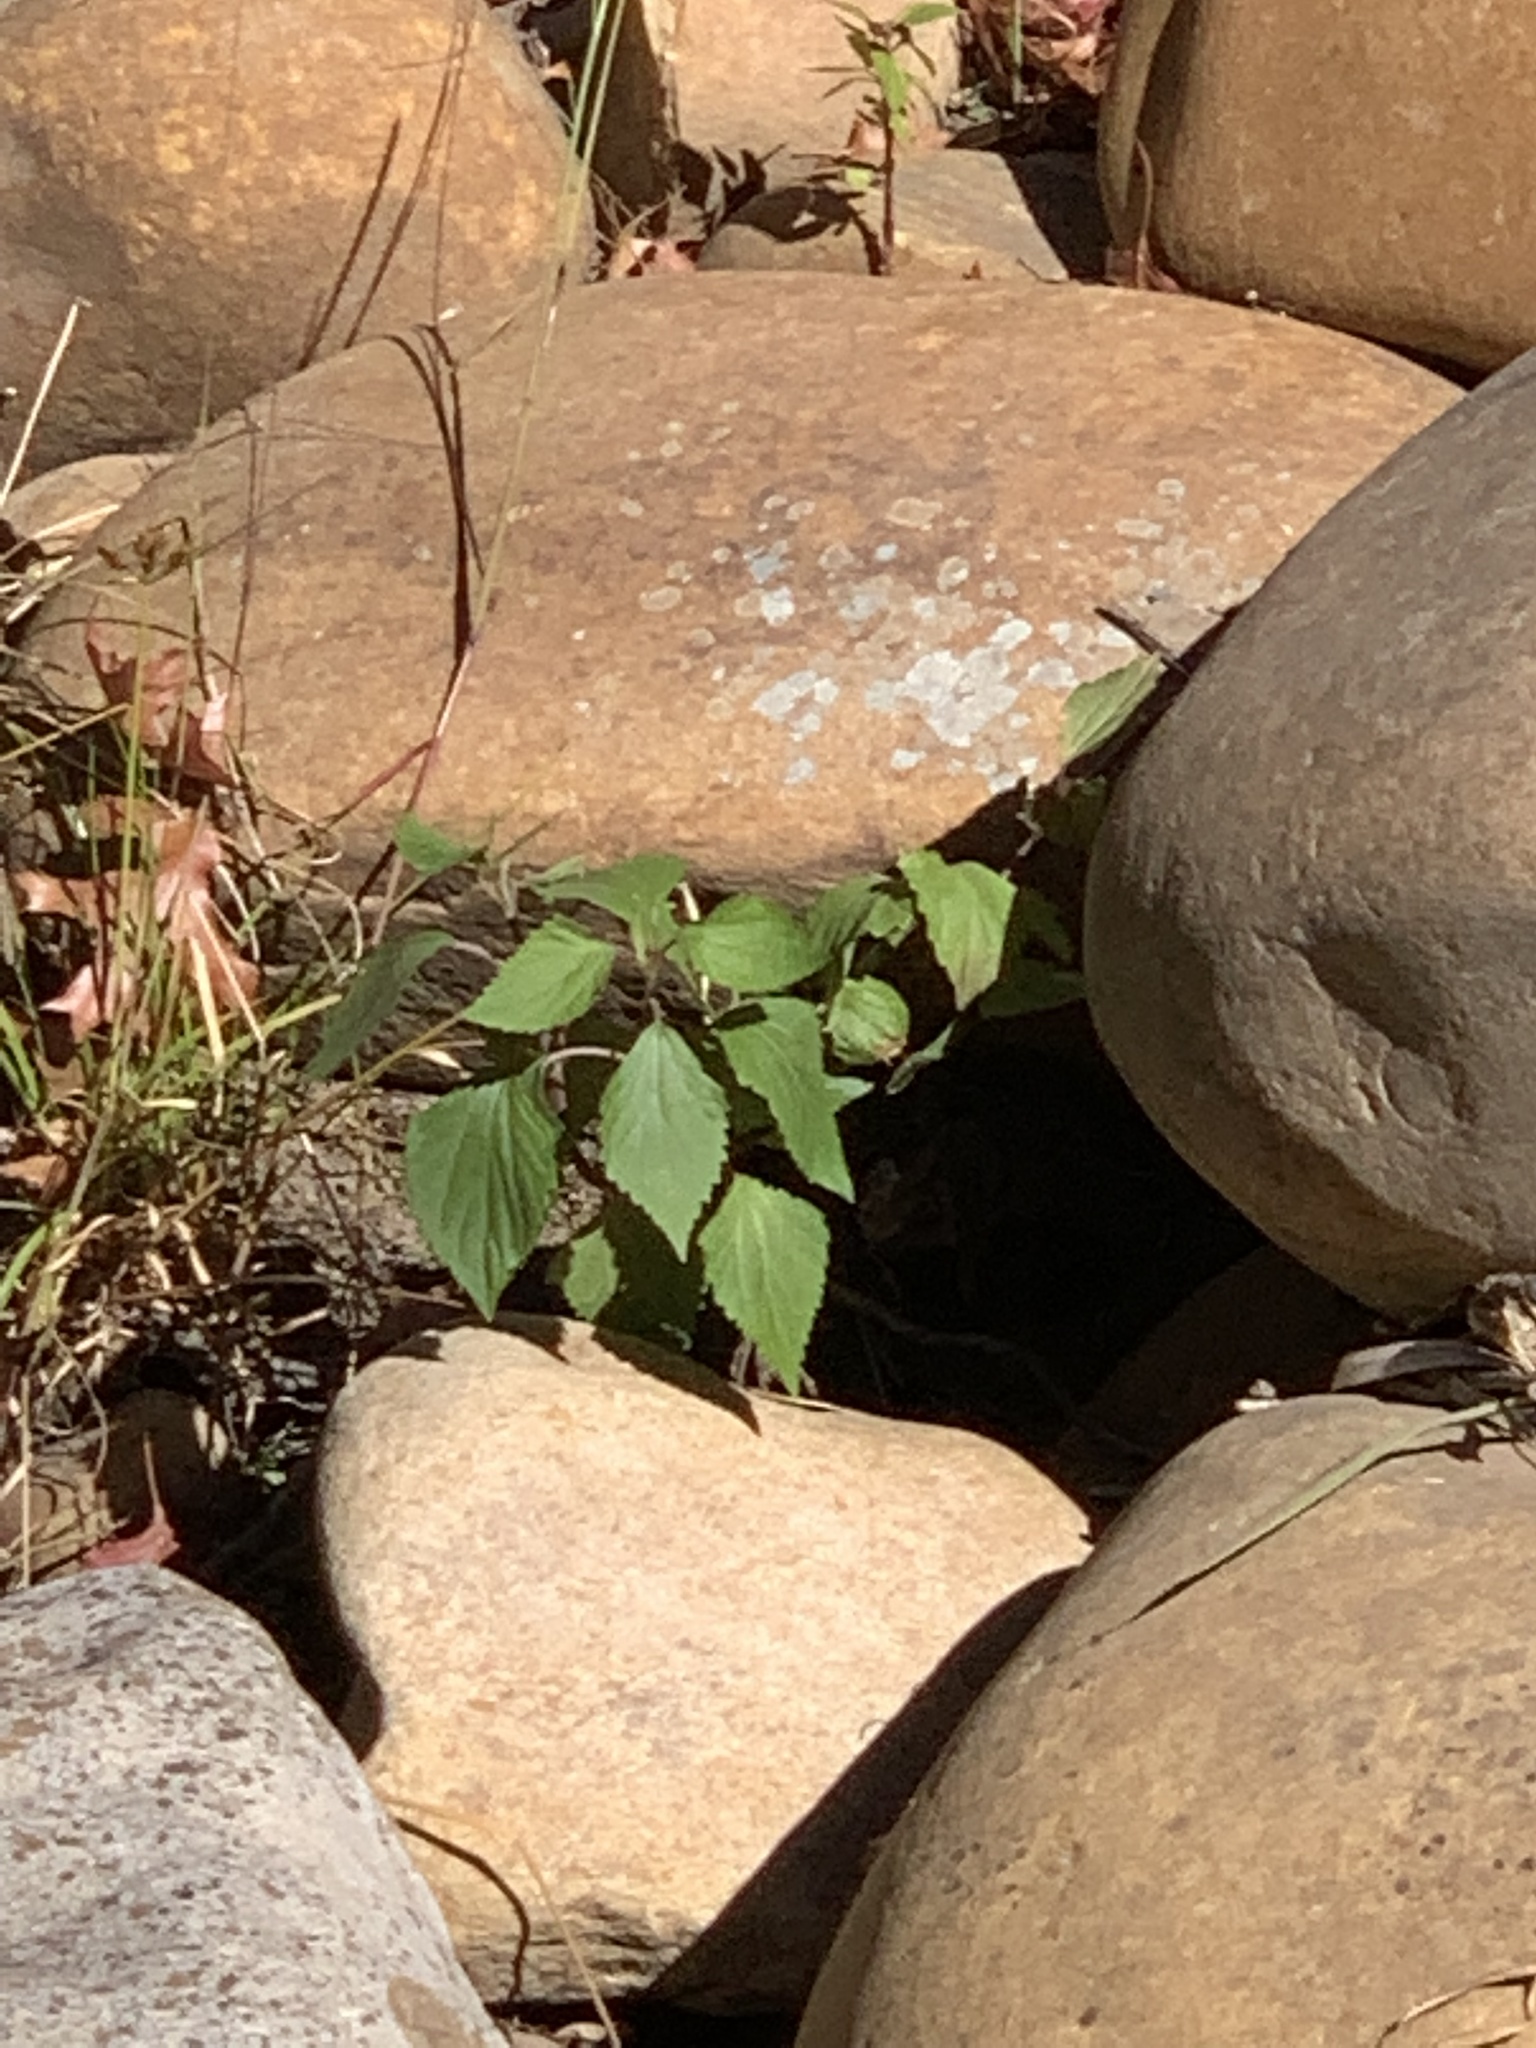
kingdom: Plantae
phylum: Tracheophyta
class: Magnoliopsida
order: Asterales
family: Asteraceae
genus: Ageratina
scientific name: Ageratina adenophora
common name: Sticky snakeroot
